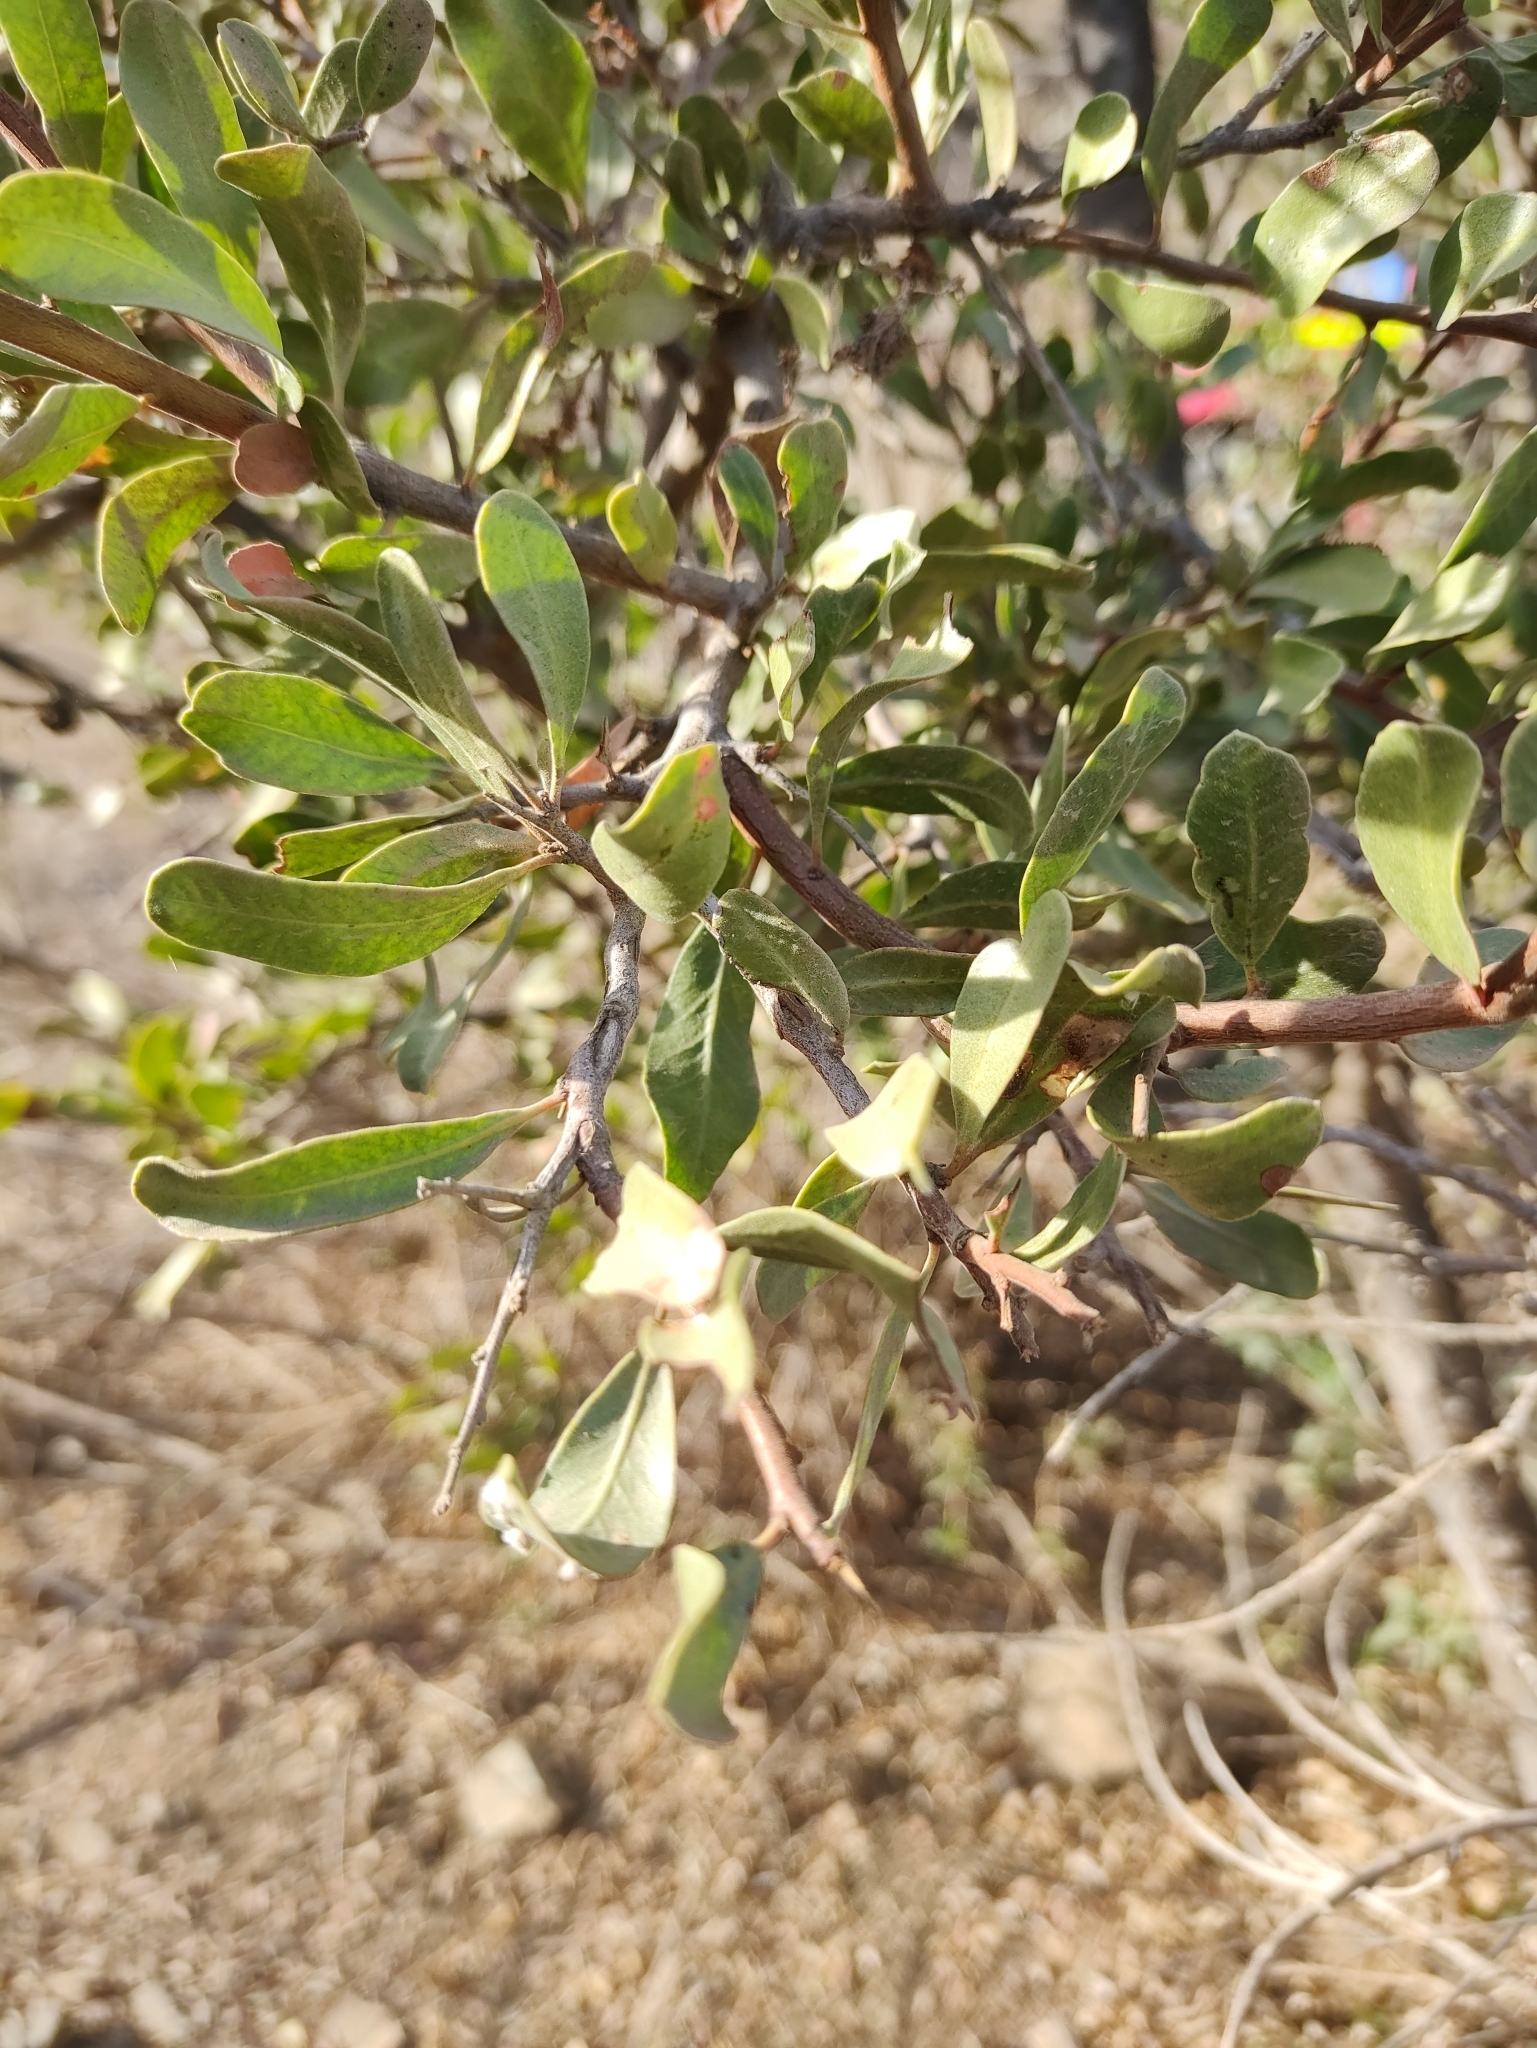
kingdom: Plantae
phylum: Tracheophyta
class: Magnoliopsida
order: Sapindales
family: Anacardiaceae
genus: Schinus
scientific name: Schinus polygama
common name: Hardee peppertree
